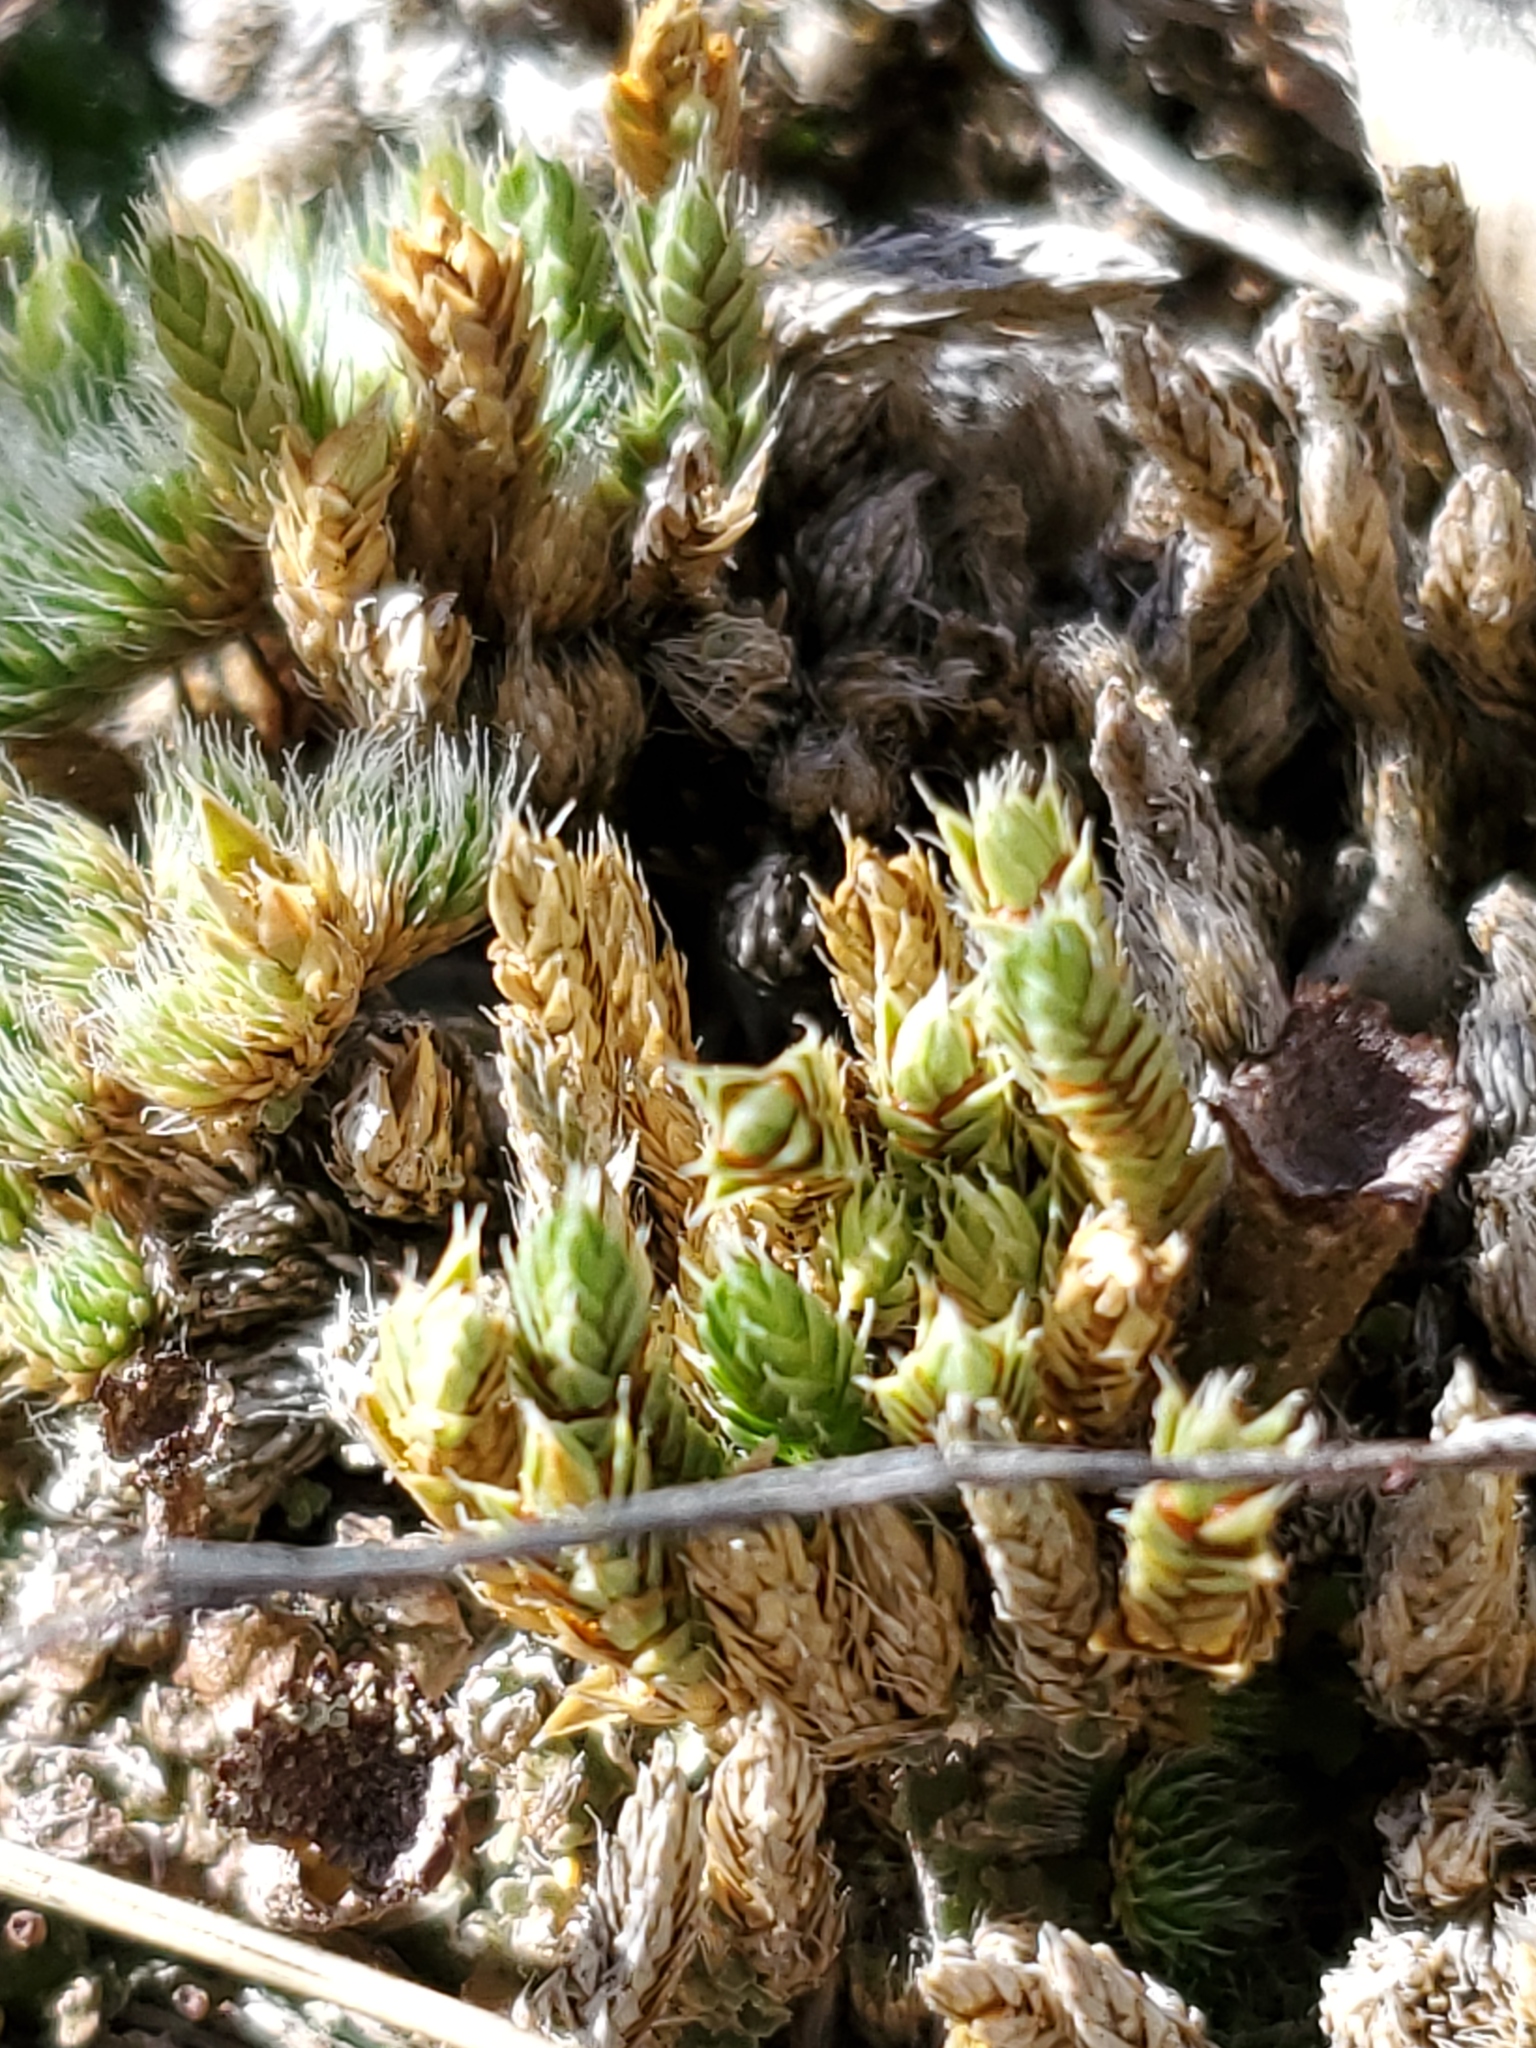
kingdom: Plantae
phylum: Tracheophyta
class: Lycopodiopsida
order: Selaginellales
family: Selaginellaceae
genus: Selaginella
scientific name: Selaginella densa
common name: Mountain spike-moss
